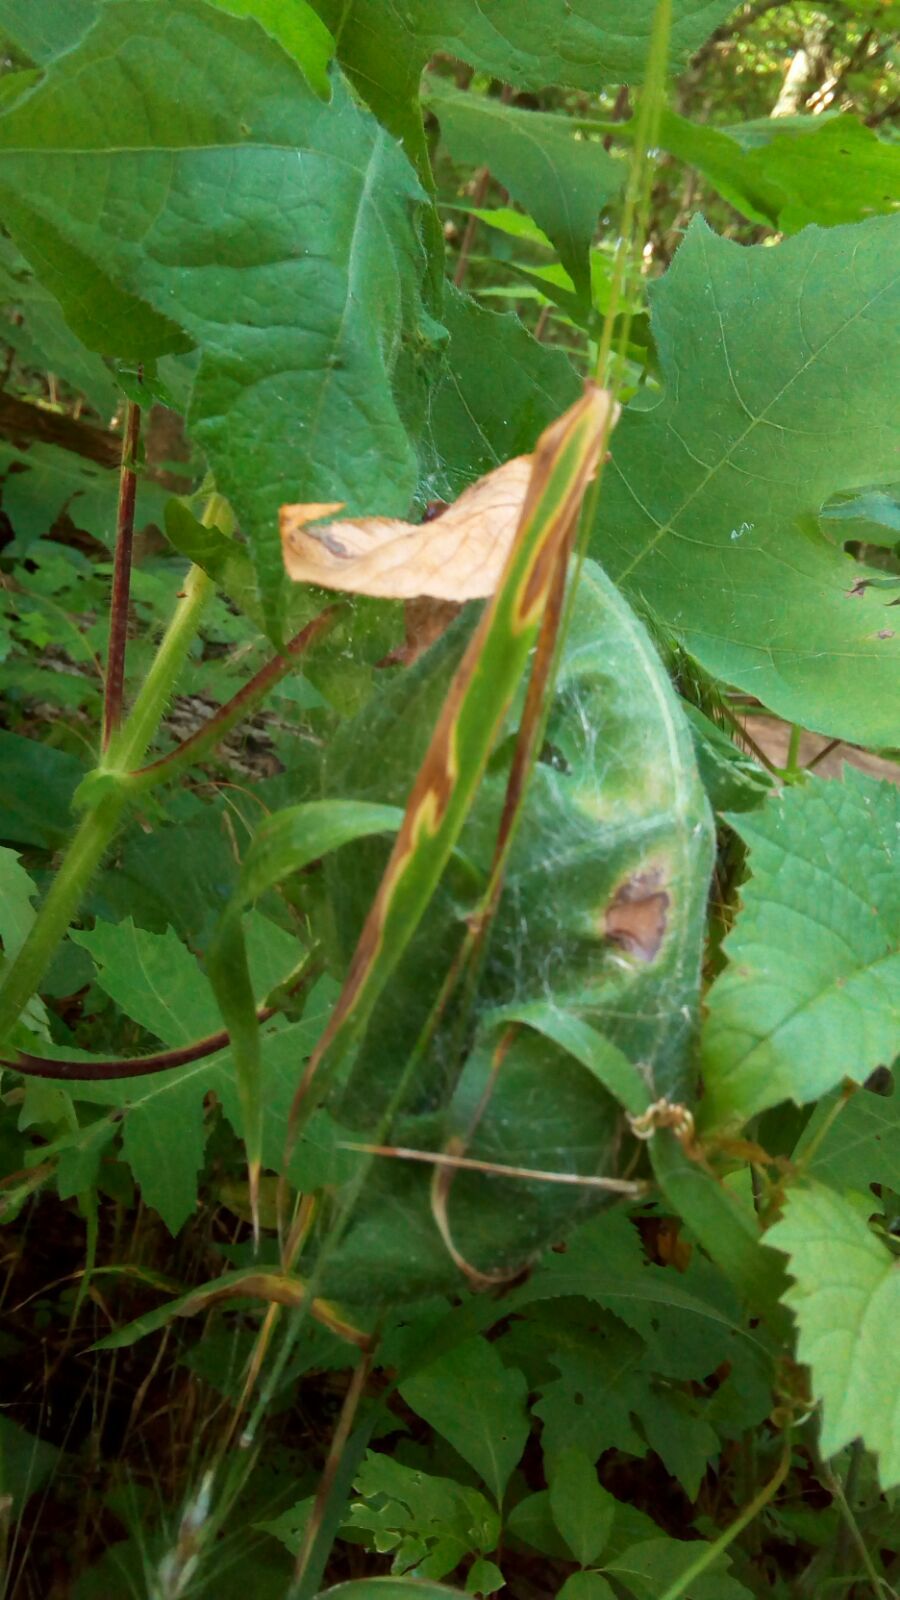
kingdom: Animalia
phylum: Arthropoda
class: Arachnida
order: Araneae
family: Pisauridae
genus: Pisaurina
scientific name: Pisaurina mira
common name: American nursery web spider
